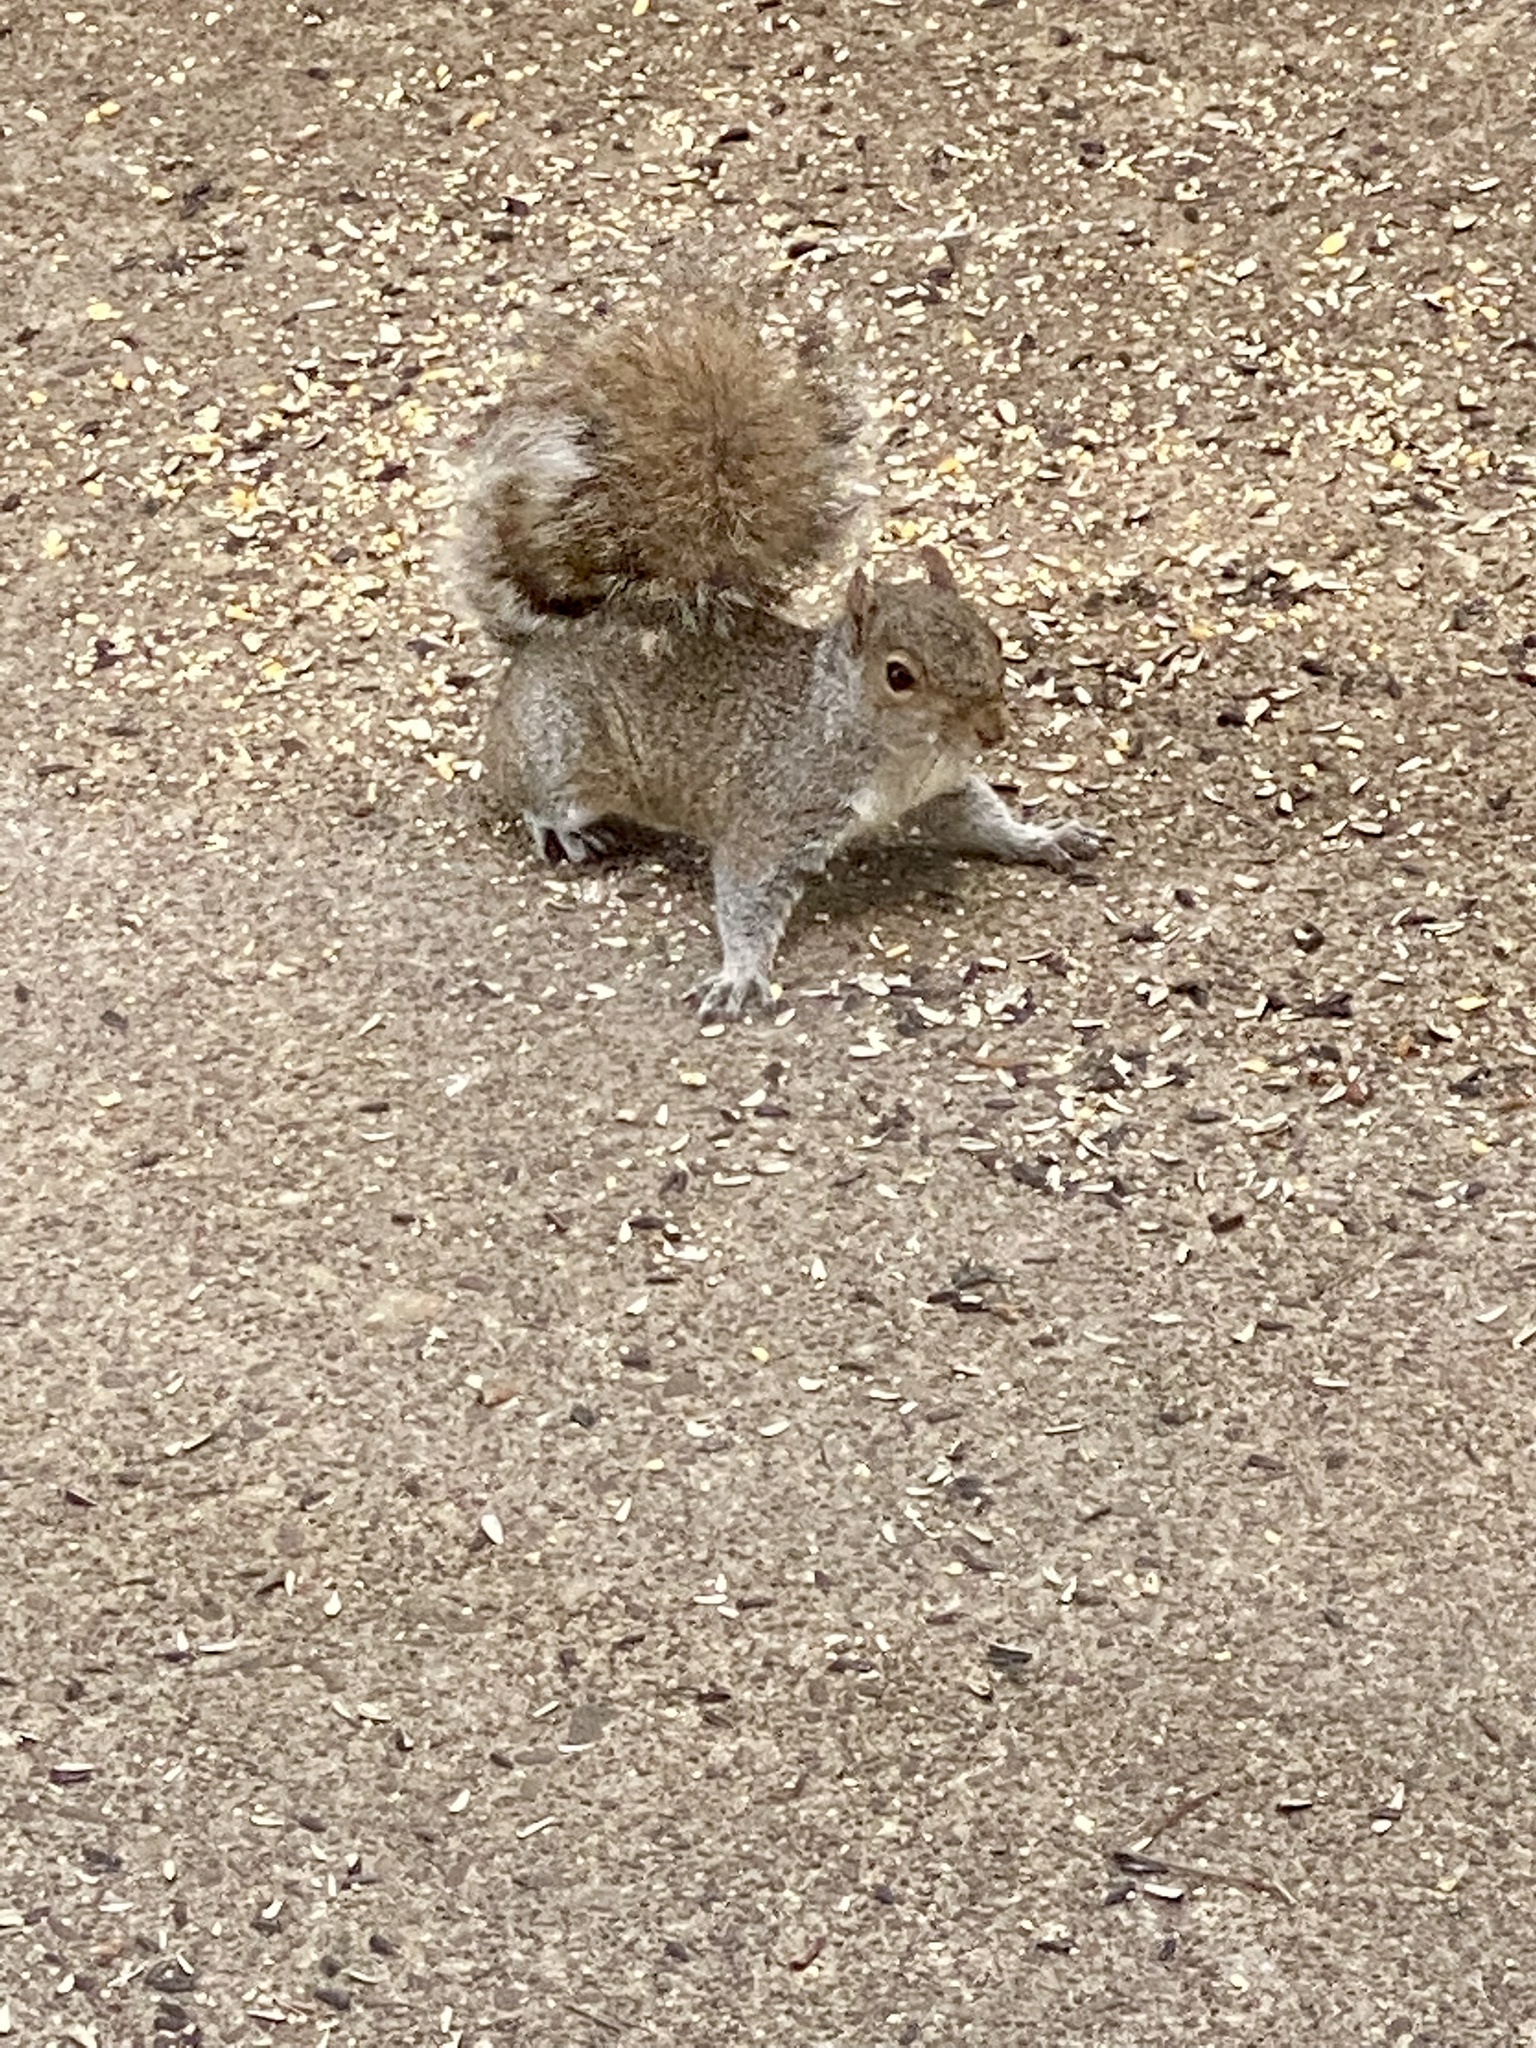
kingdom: Animalia
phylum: Chordata
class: Mammalia
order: Rodentia
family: Sciuridae
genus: Sciurus
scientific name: Sciurus carolinensis
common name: Eastern gray squirrel
